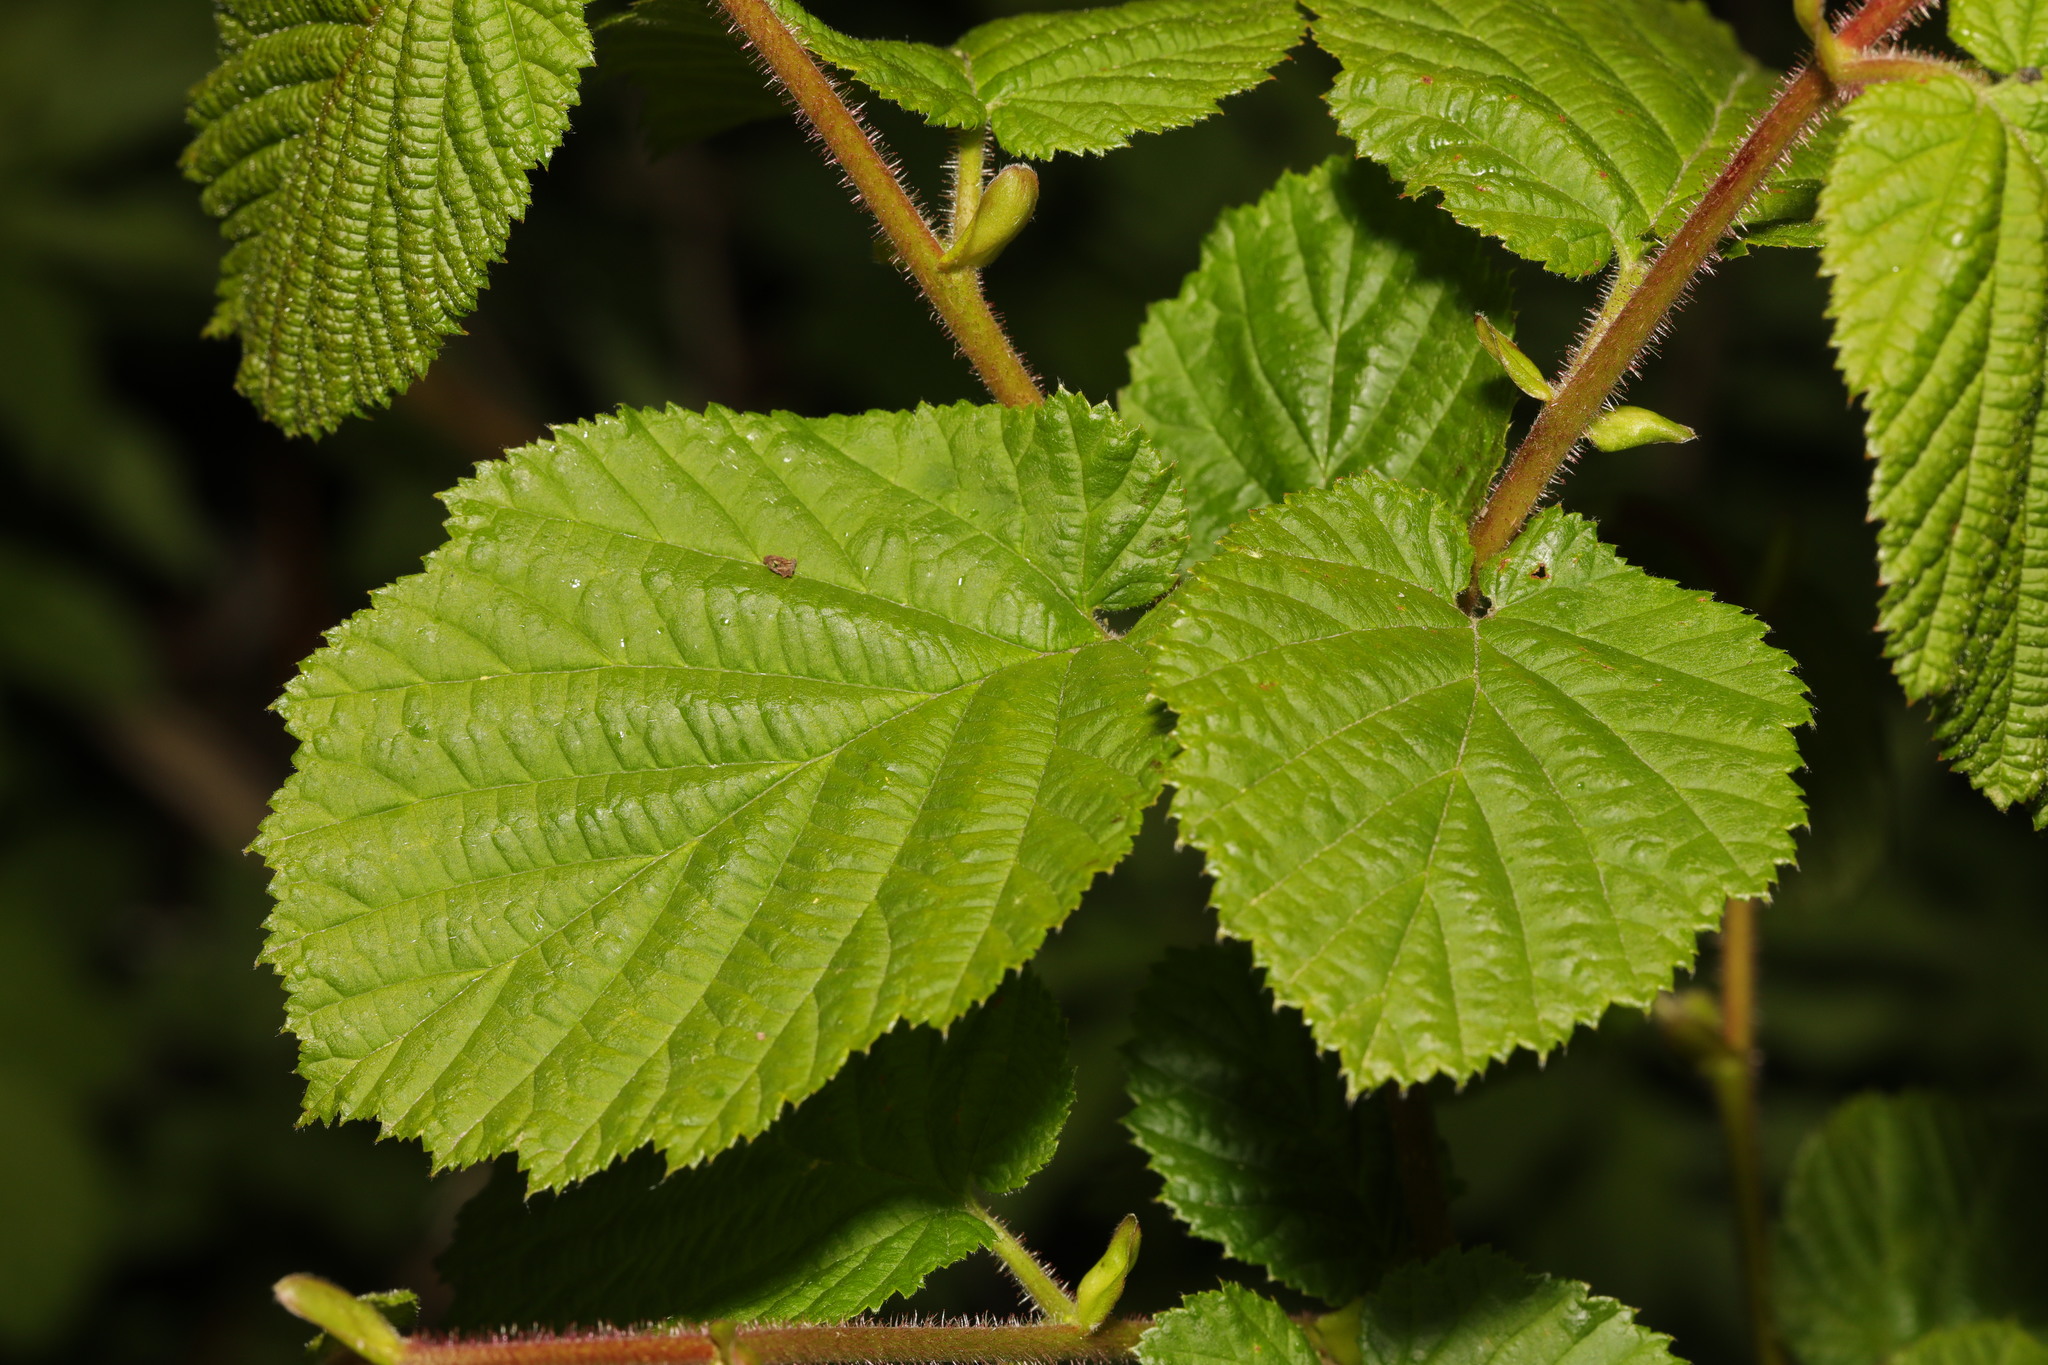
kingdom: Plantae
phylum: Tracheophyta
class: Magnoliopsida
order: Fagales
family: Betulaceae
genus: Corylus
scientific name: Corylus avellana
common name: European hazel
